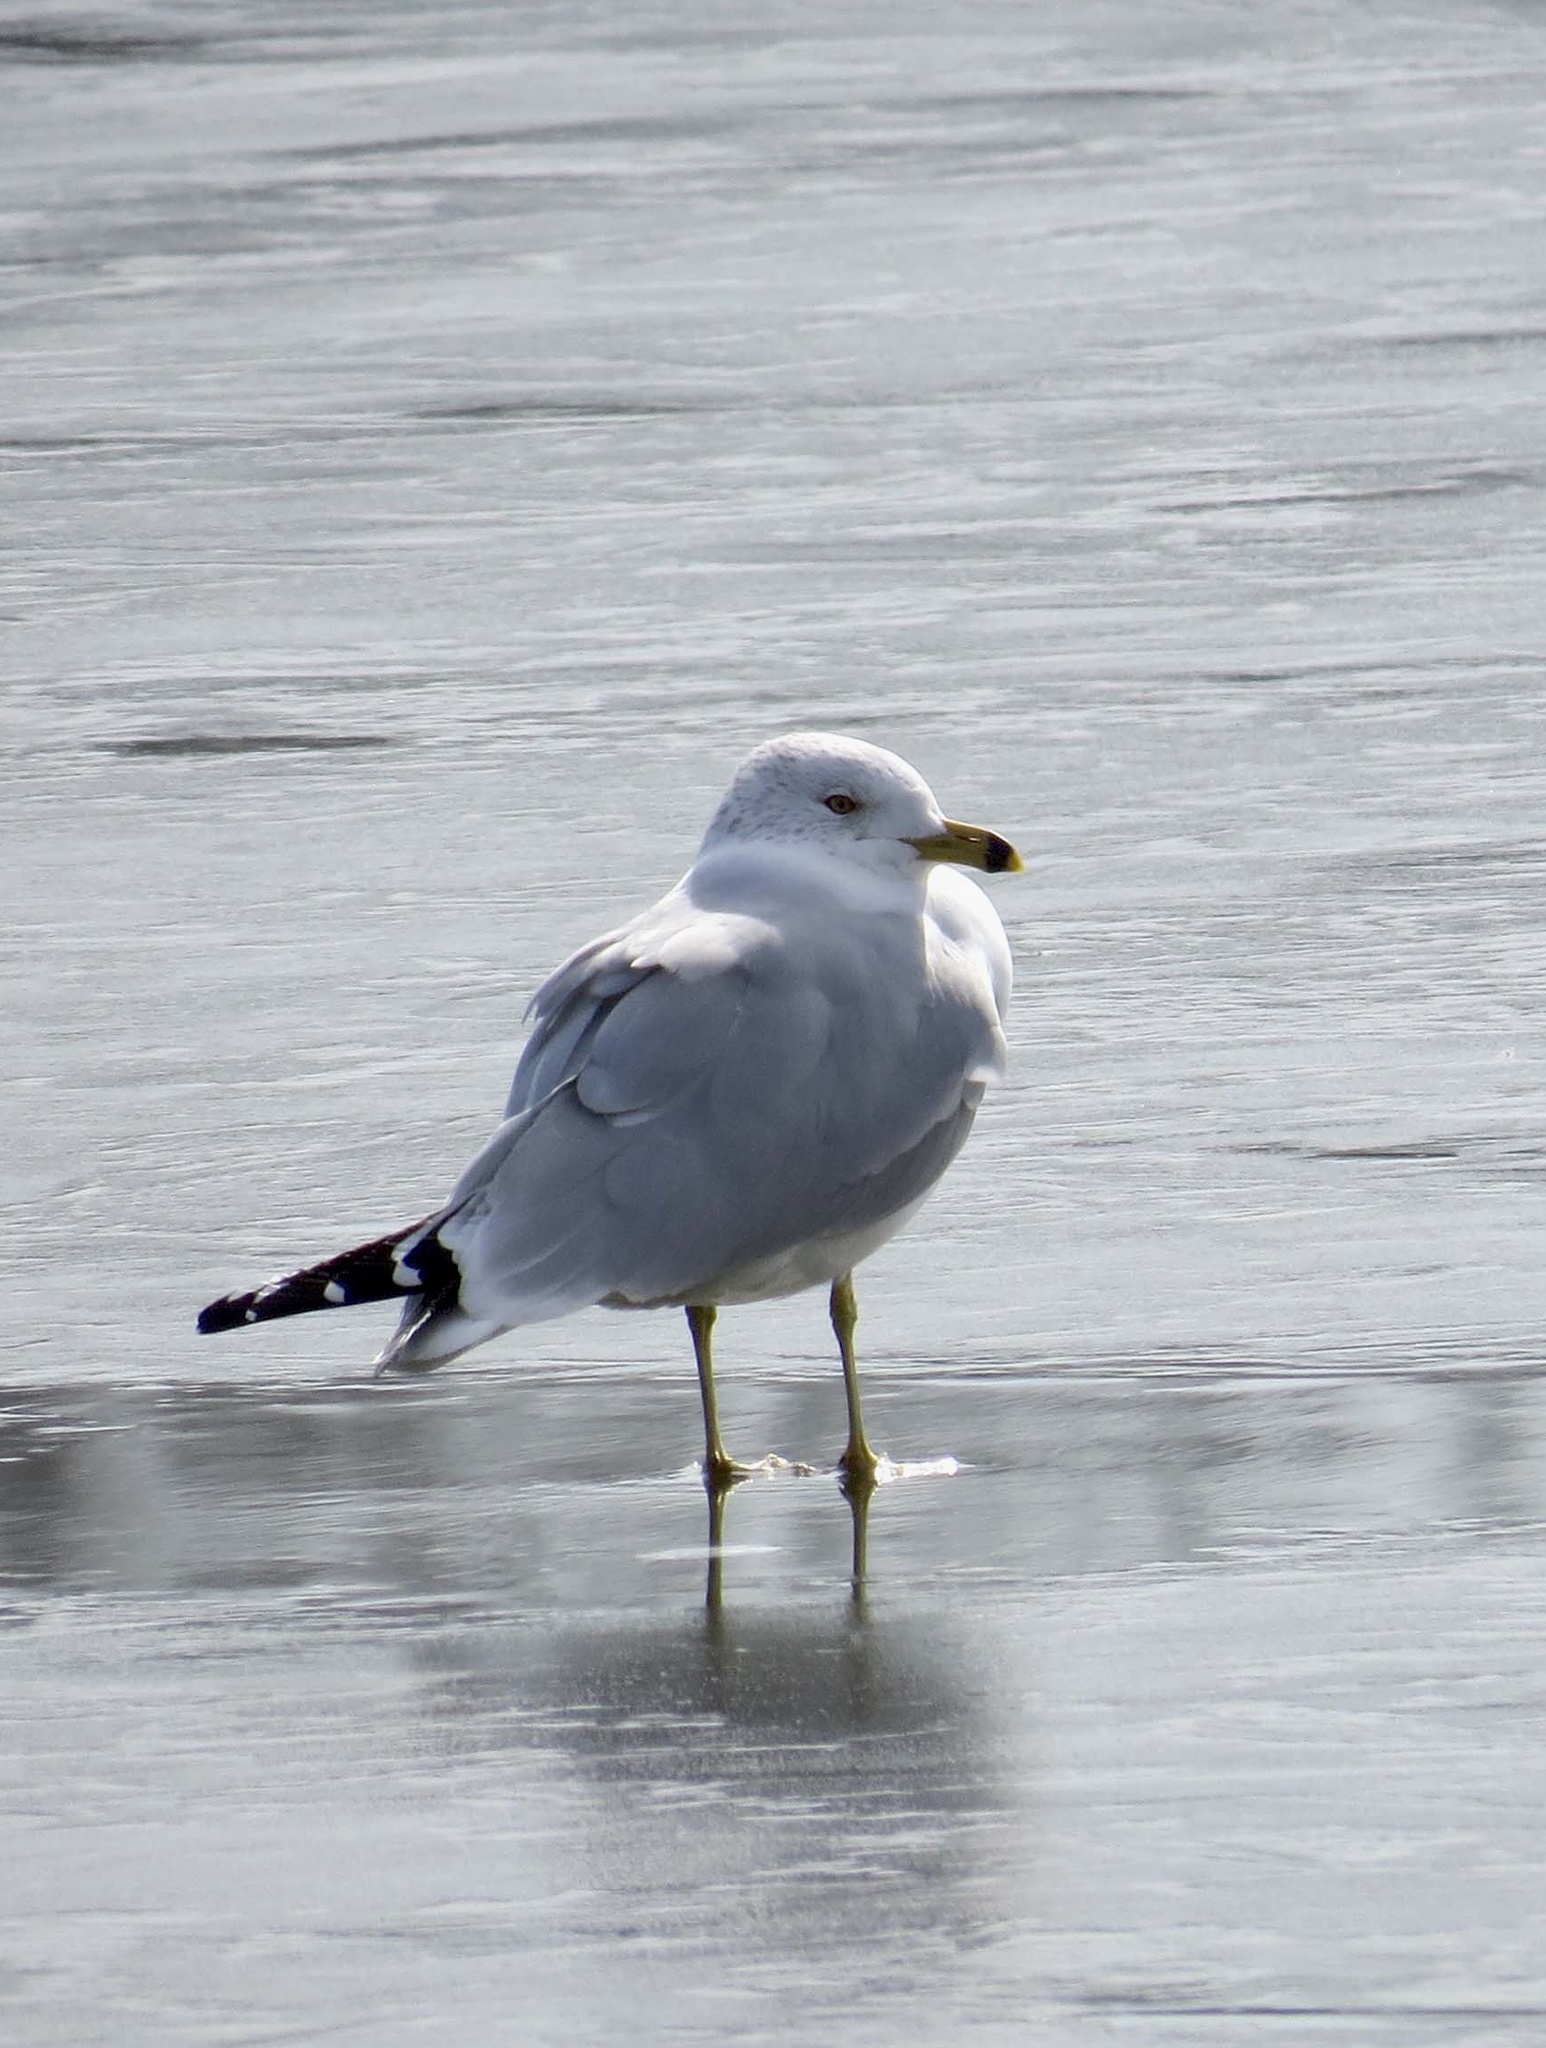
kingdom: Animalia
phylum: Chordata
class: Aves
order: Charadriiformes
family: Laridae
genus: Larus
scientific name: Larus delawarensis
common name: Ring-billed gull
